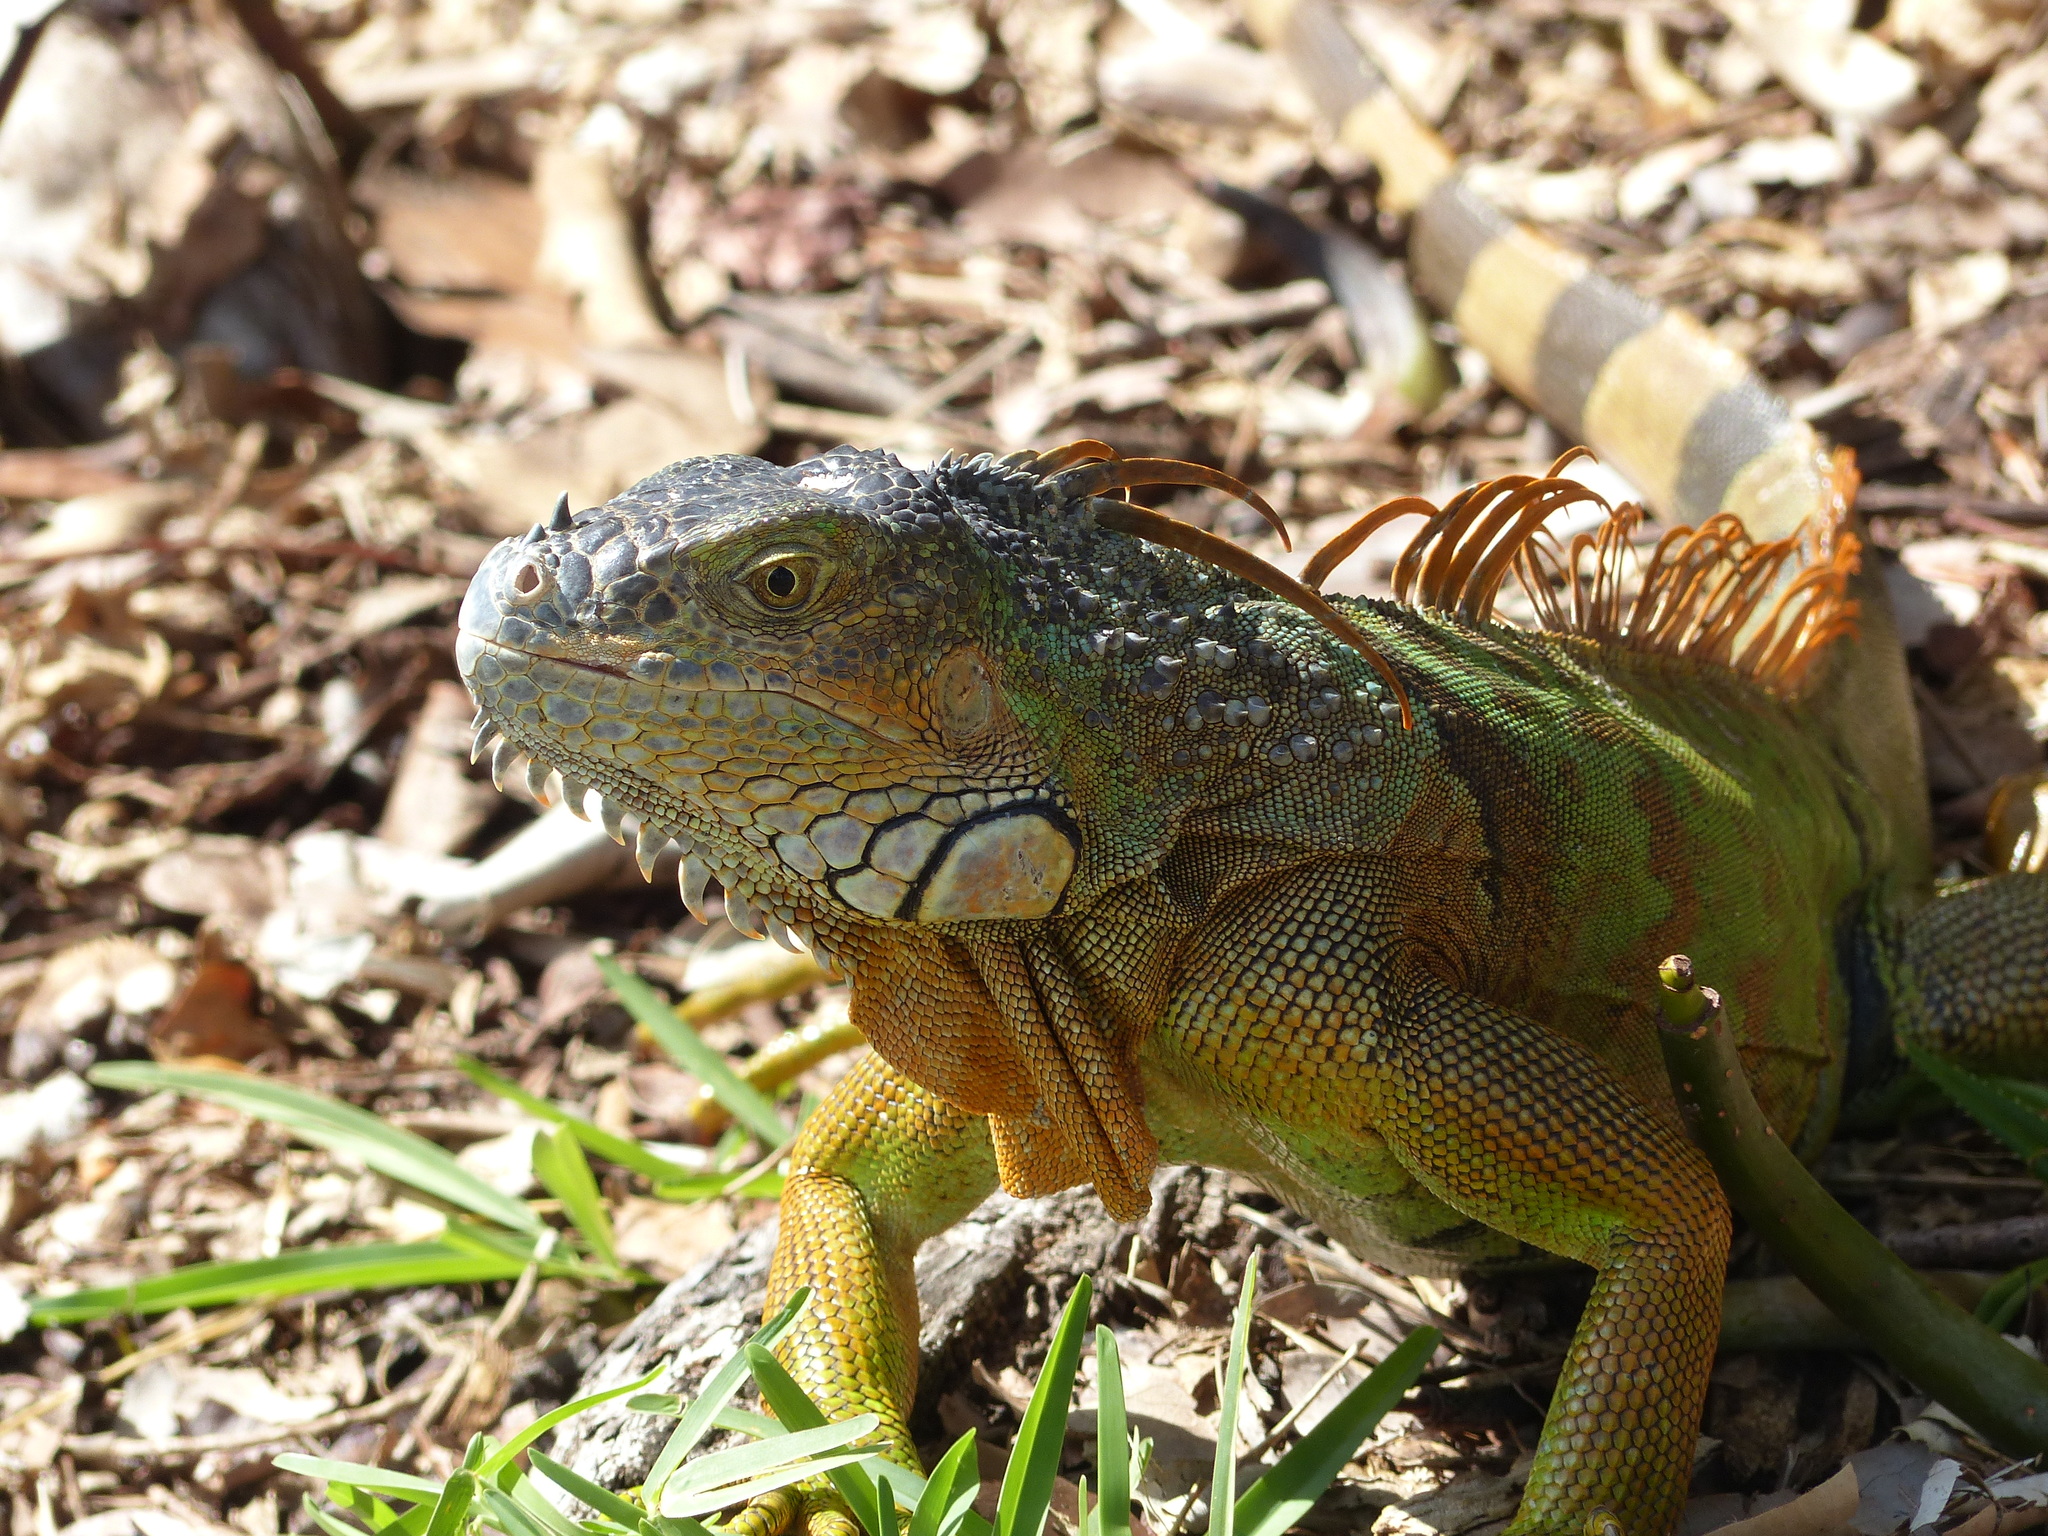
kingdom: Animalia
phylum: Chordata
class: Squamata
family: Iguanidae
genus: Iguana
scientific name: Iguana iguana
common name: Green iguana
